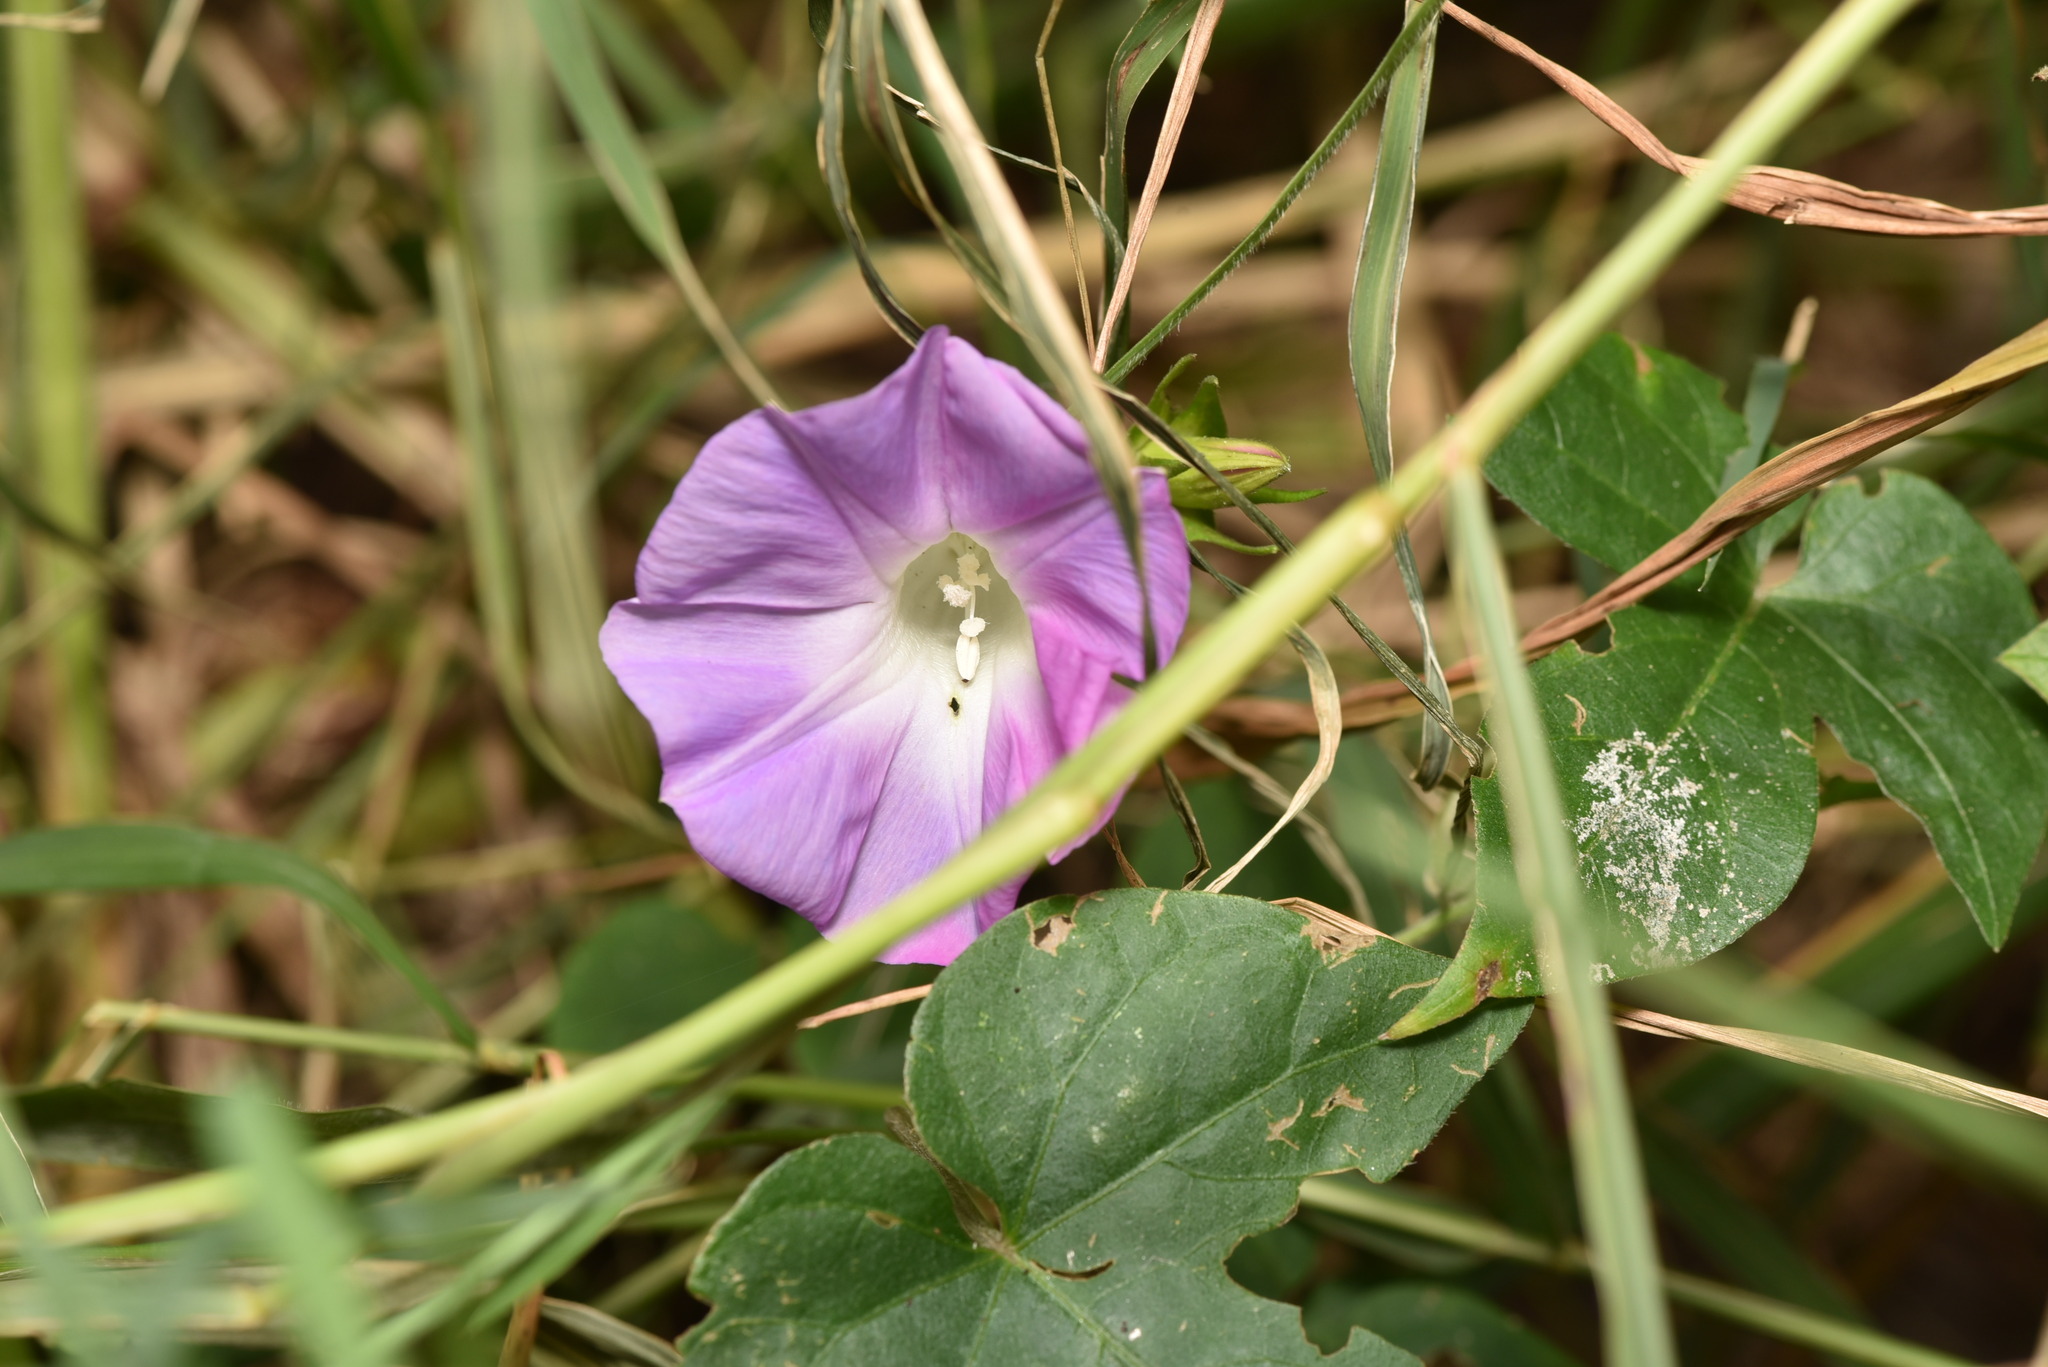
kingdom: Plantae
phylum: Tracheophyta
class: Magnoliopsida
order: Solanales
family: Convolvulaceae
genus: Ipomoea
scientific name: Ipomoea indica
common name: Blue dawnflower
